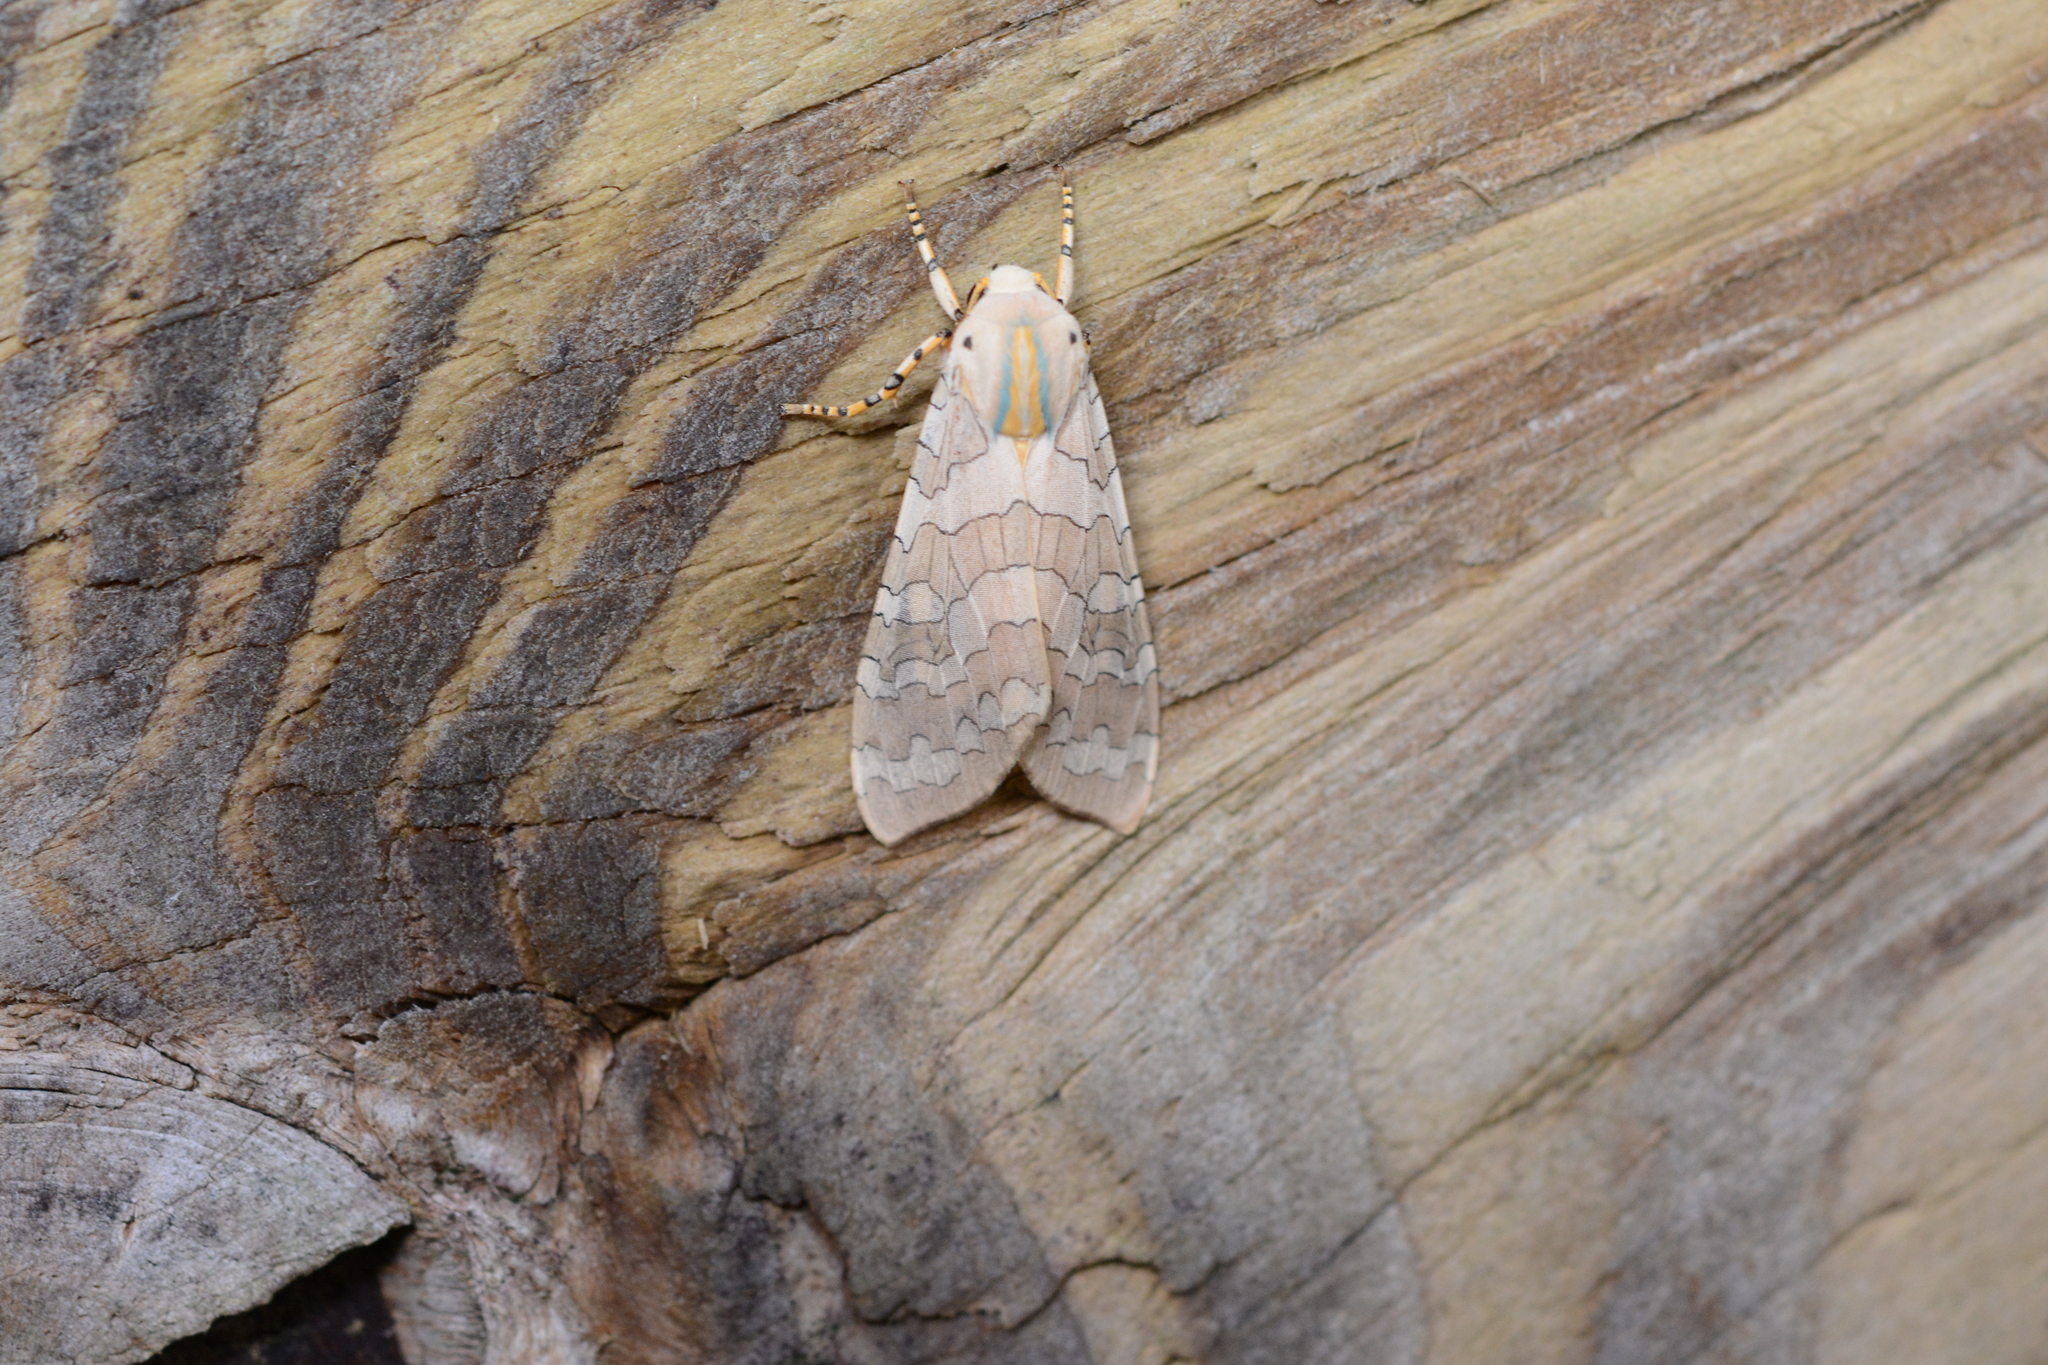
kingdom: Animalia
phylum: Arthropoda
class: Insecta
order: Lepidoptera
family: Erebidae
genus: Halysidota
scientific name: Halysidota
